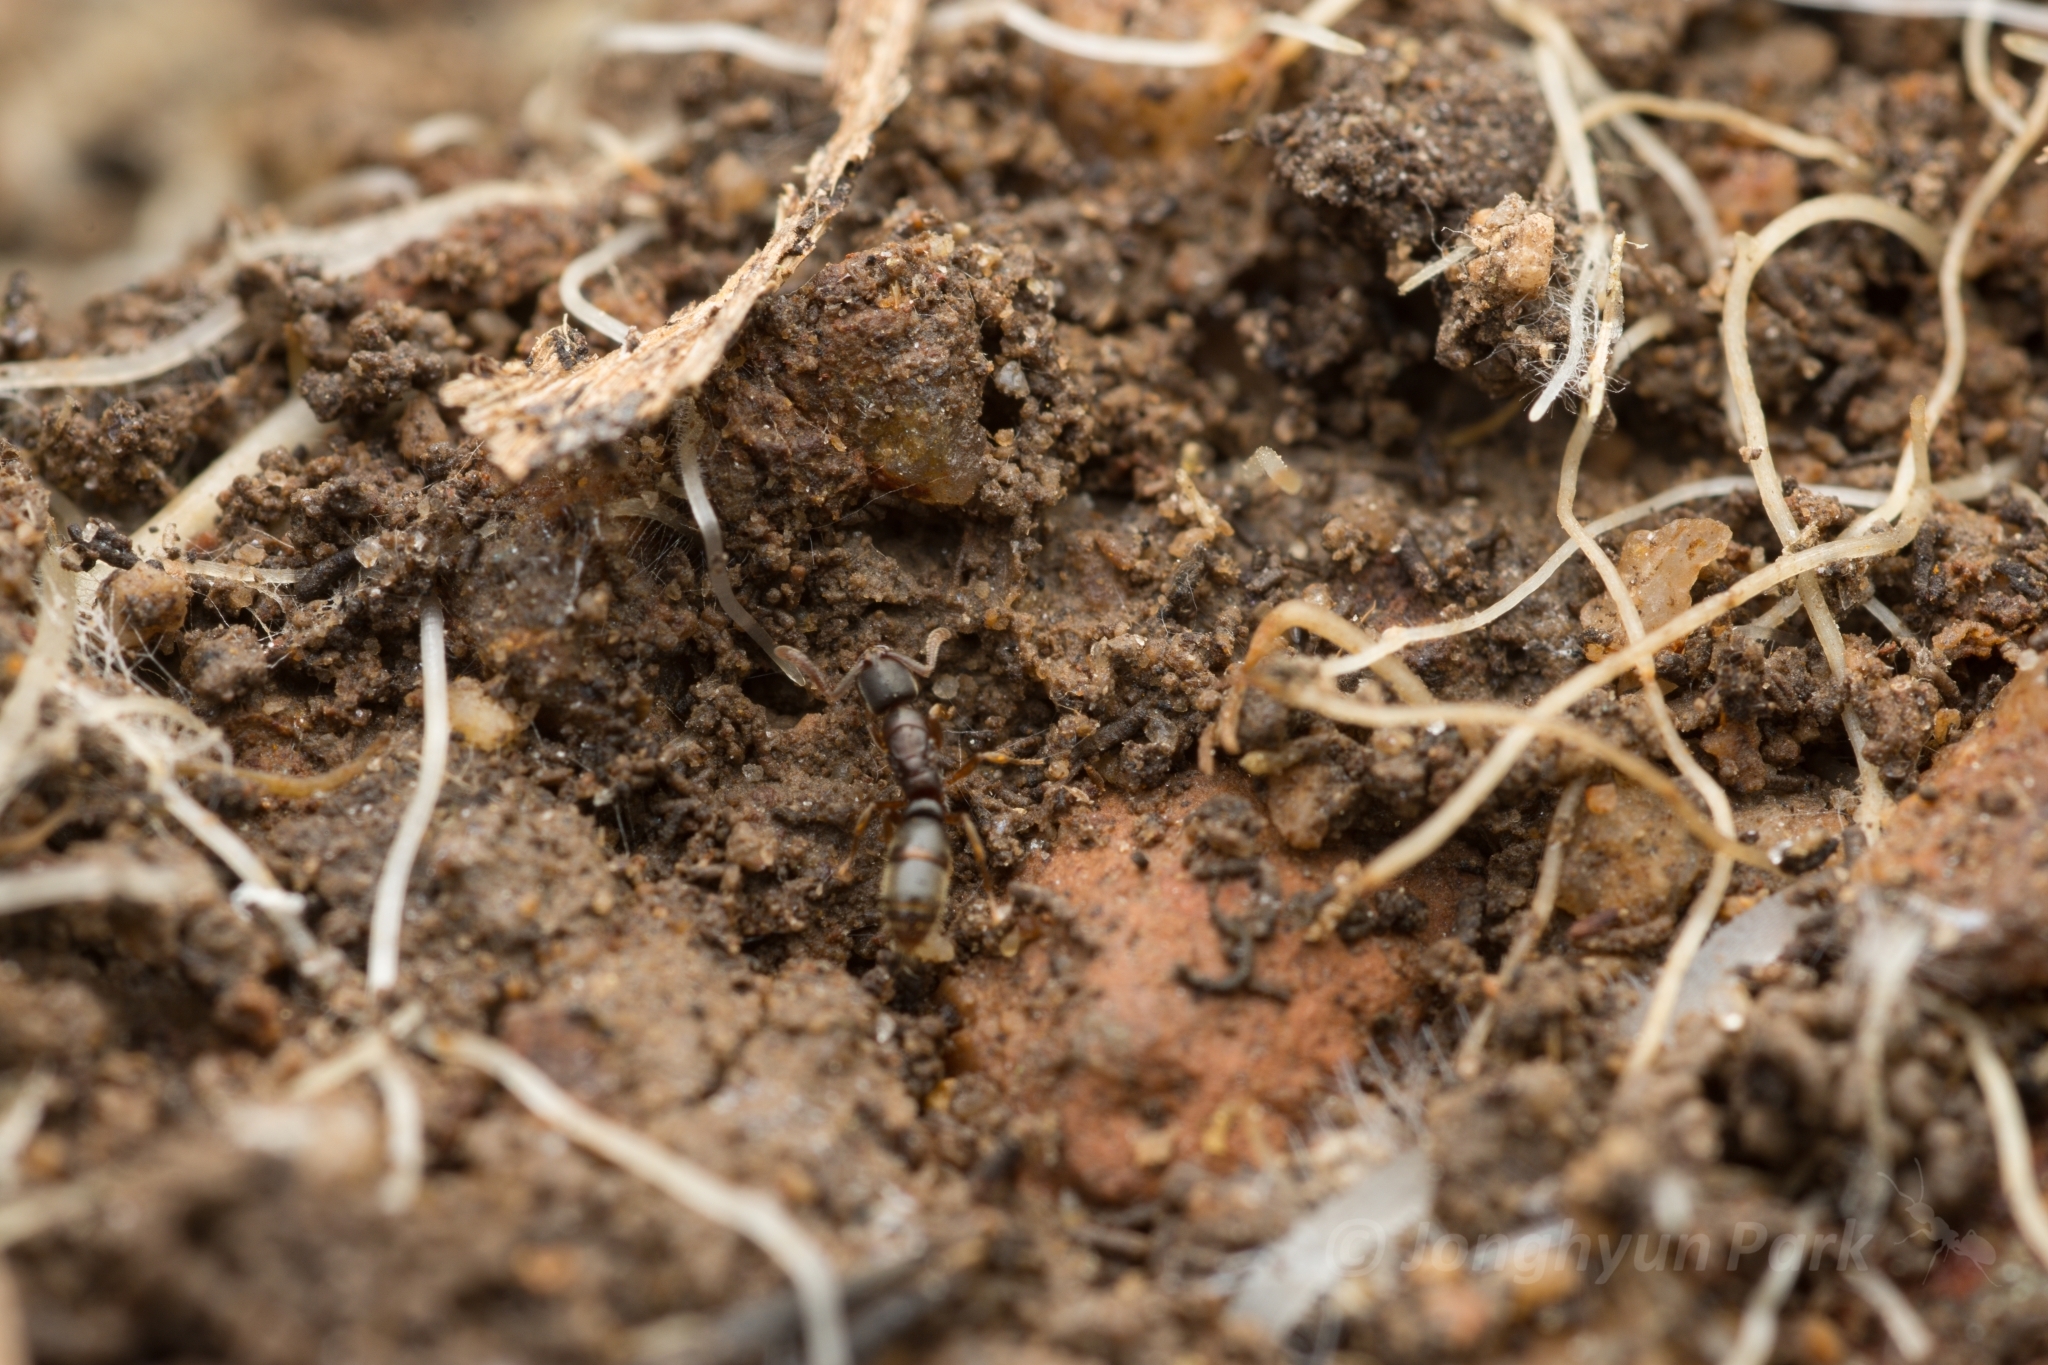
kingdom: Animalia
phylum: Arthropoda
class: Insecta
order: Hymenoptera
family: Formicidae
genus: Ponera
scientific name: Ponera japonica
